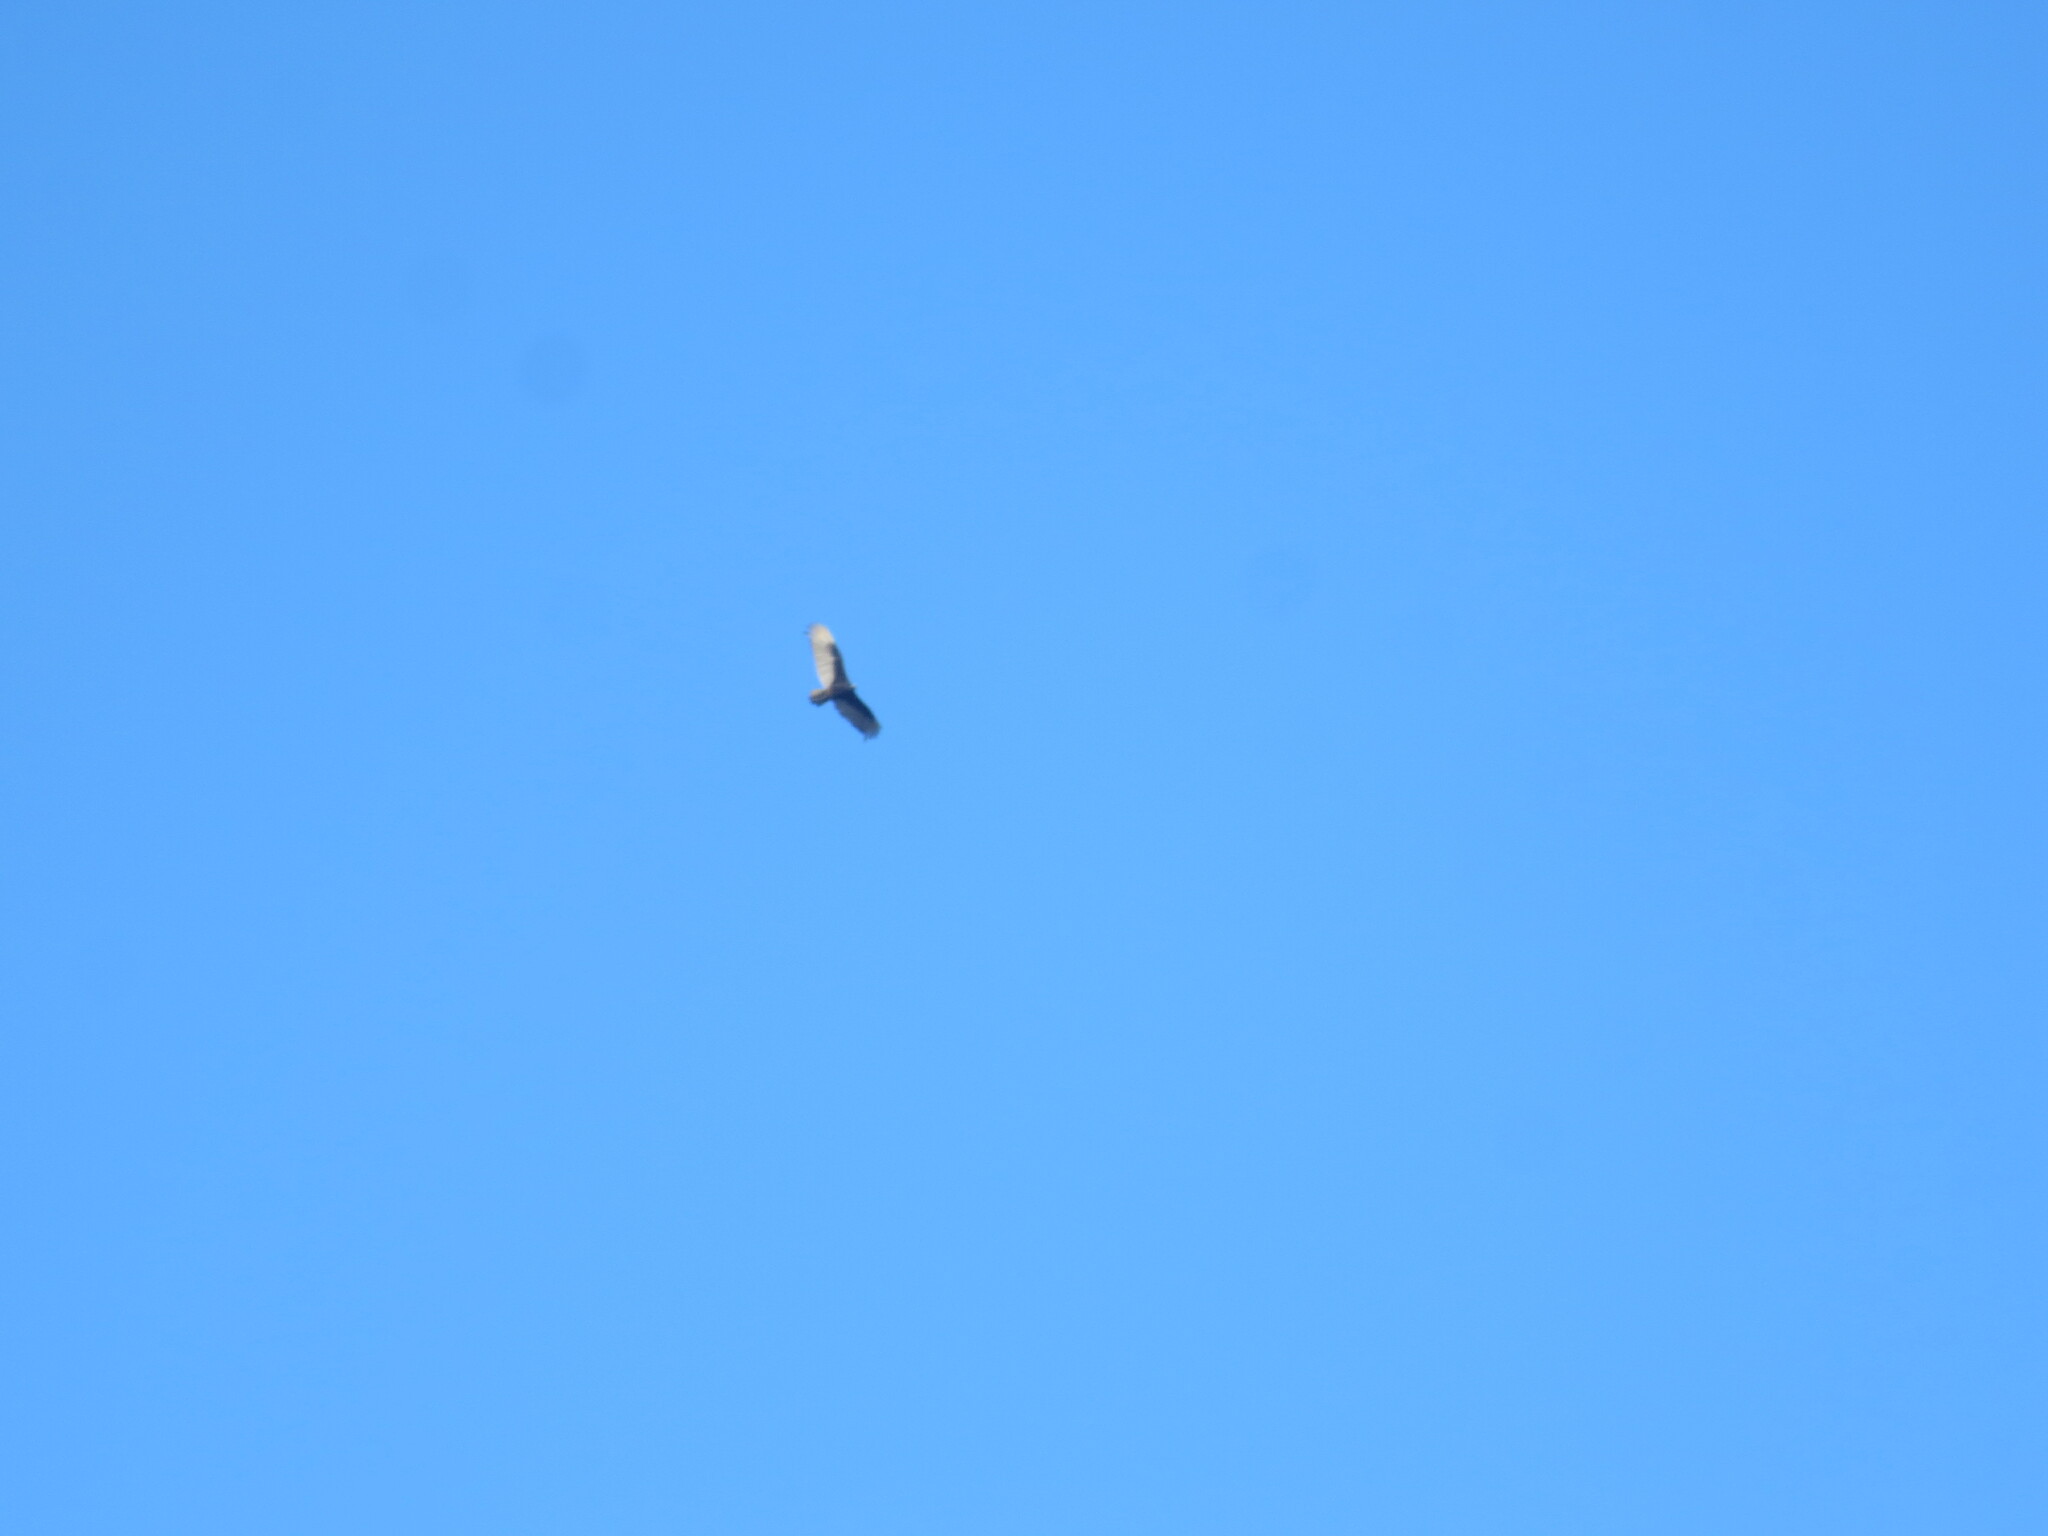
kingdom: Animalia
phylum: Chordata
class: Aves
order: Accipitriformes
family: Cathartidae
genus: Cathartes
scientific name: Cathartes aura
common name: Turkey vulture
